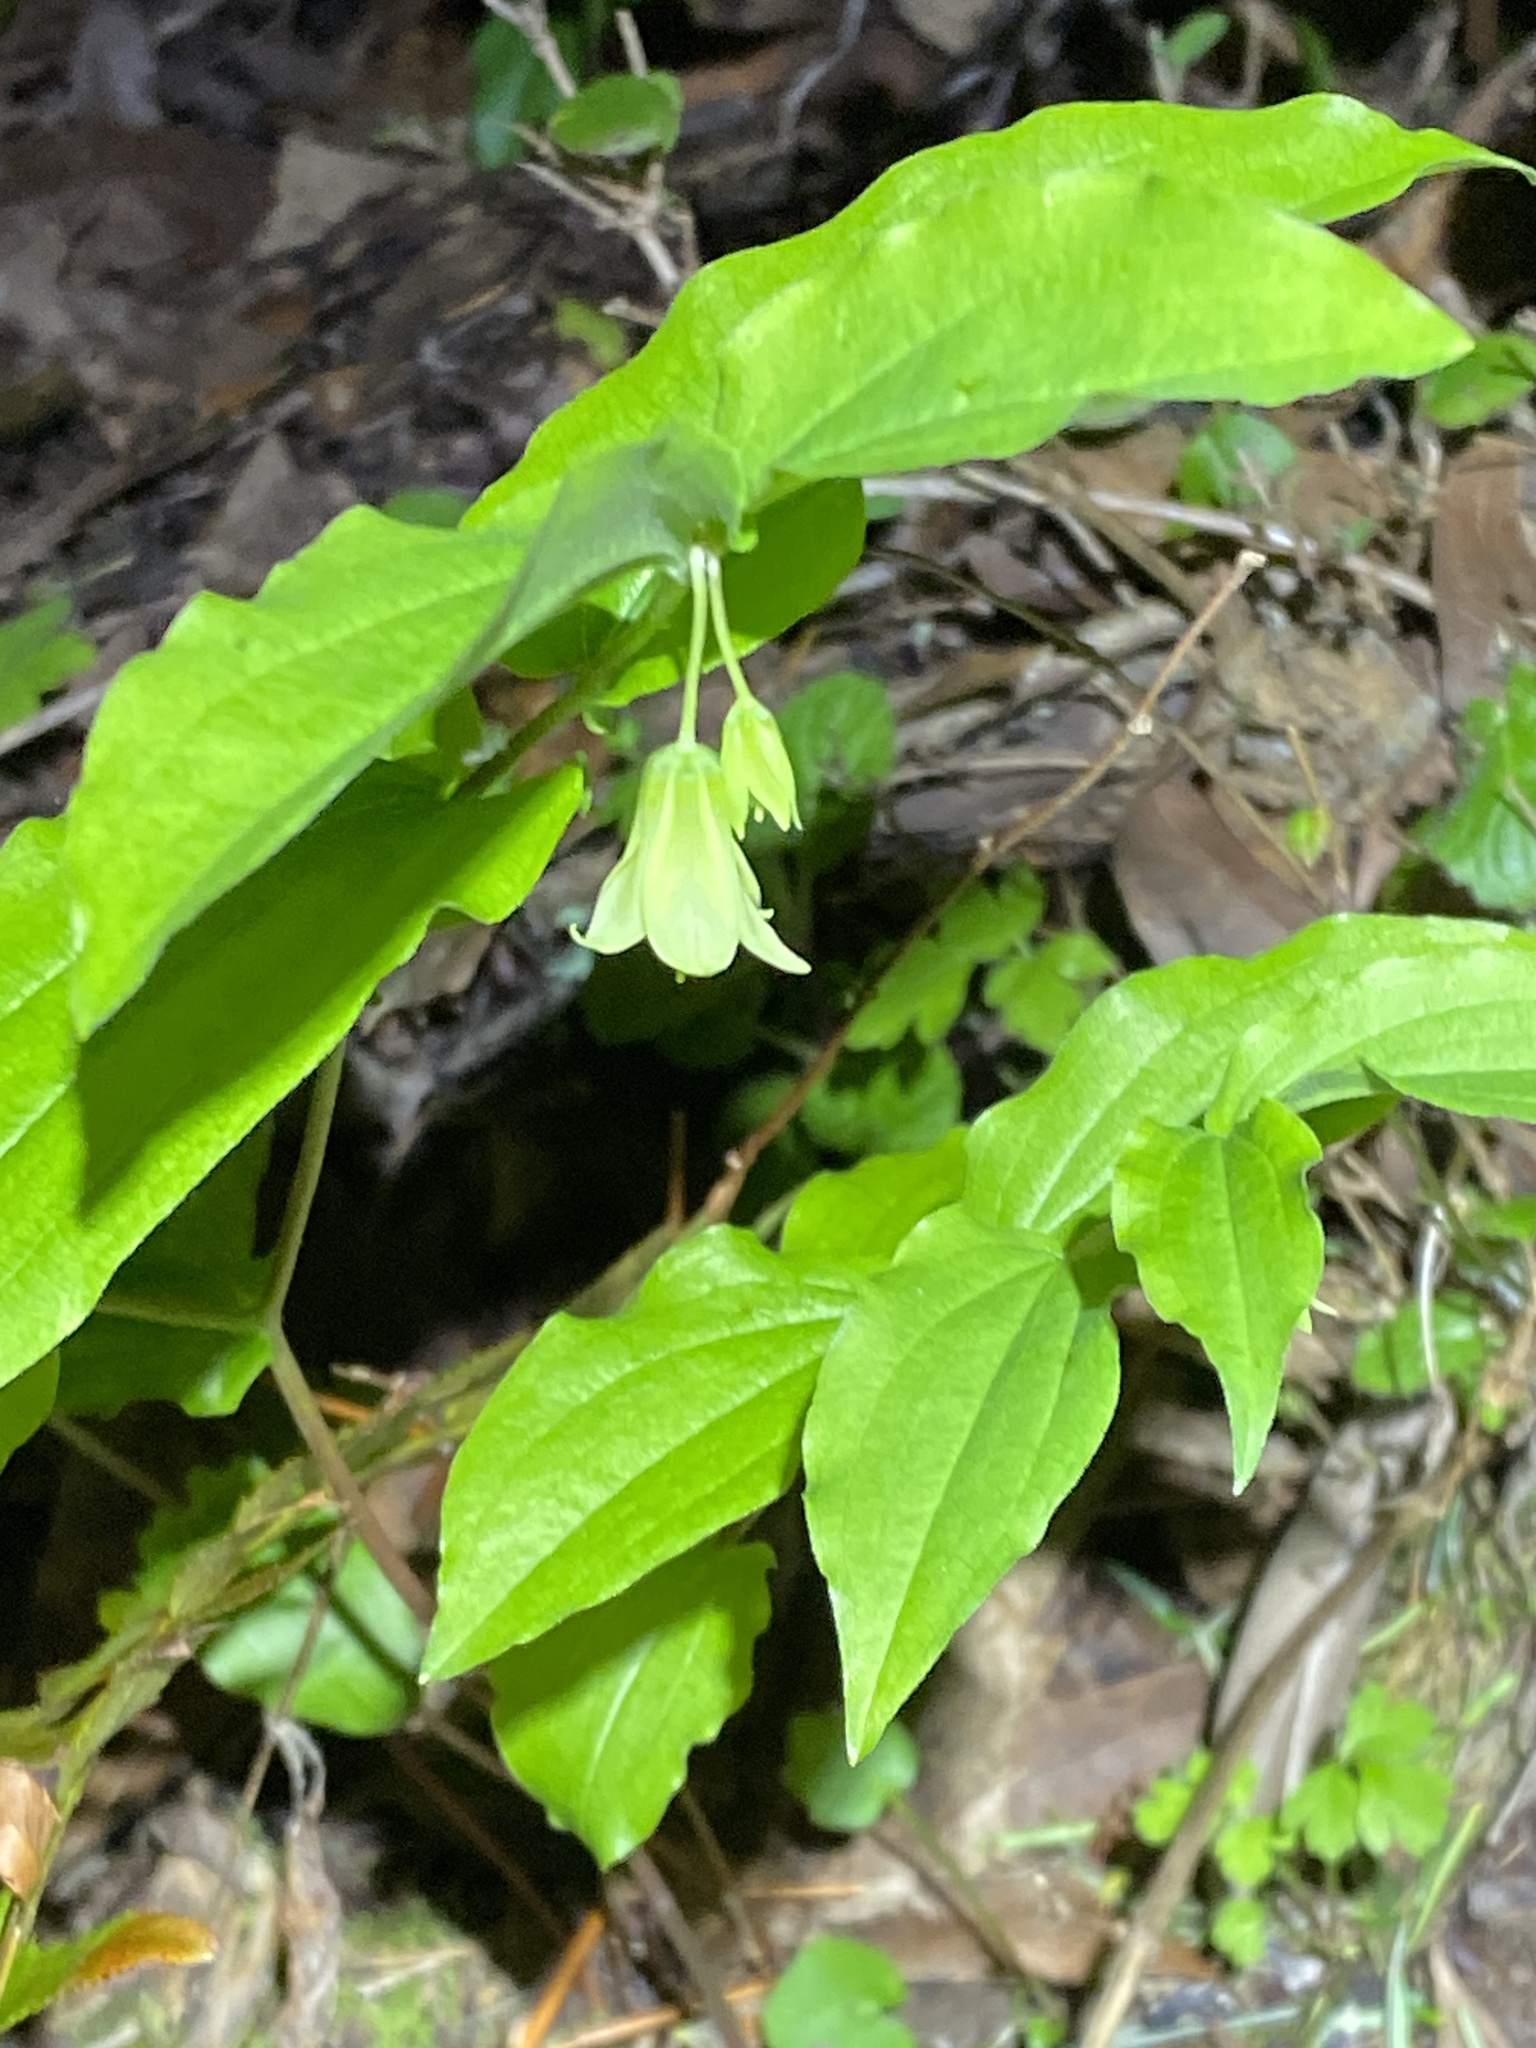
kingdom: Plantae
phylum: Tracheophyta
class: Liliopsida
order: Liliales
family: Liliaceae
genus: Prosartes
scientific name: Prosartes hookeri
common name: Fairy-bells
